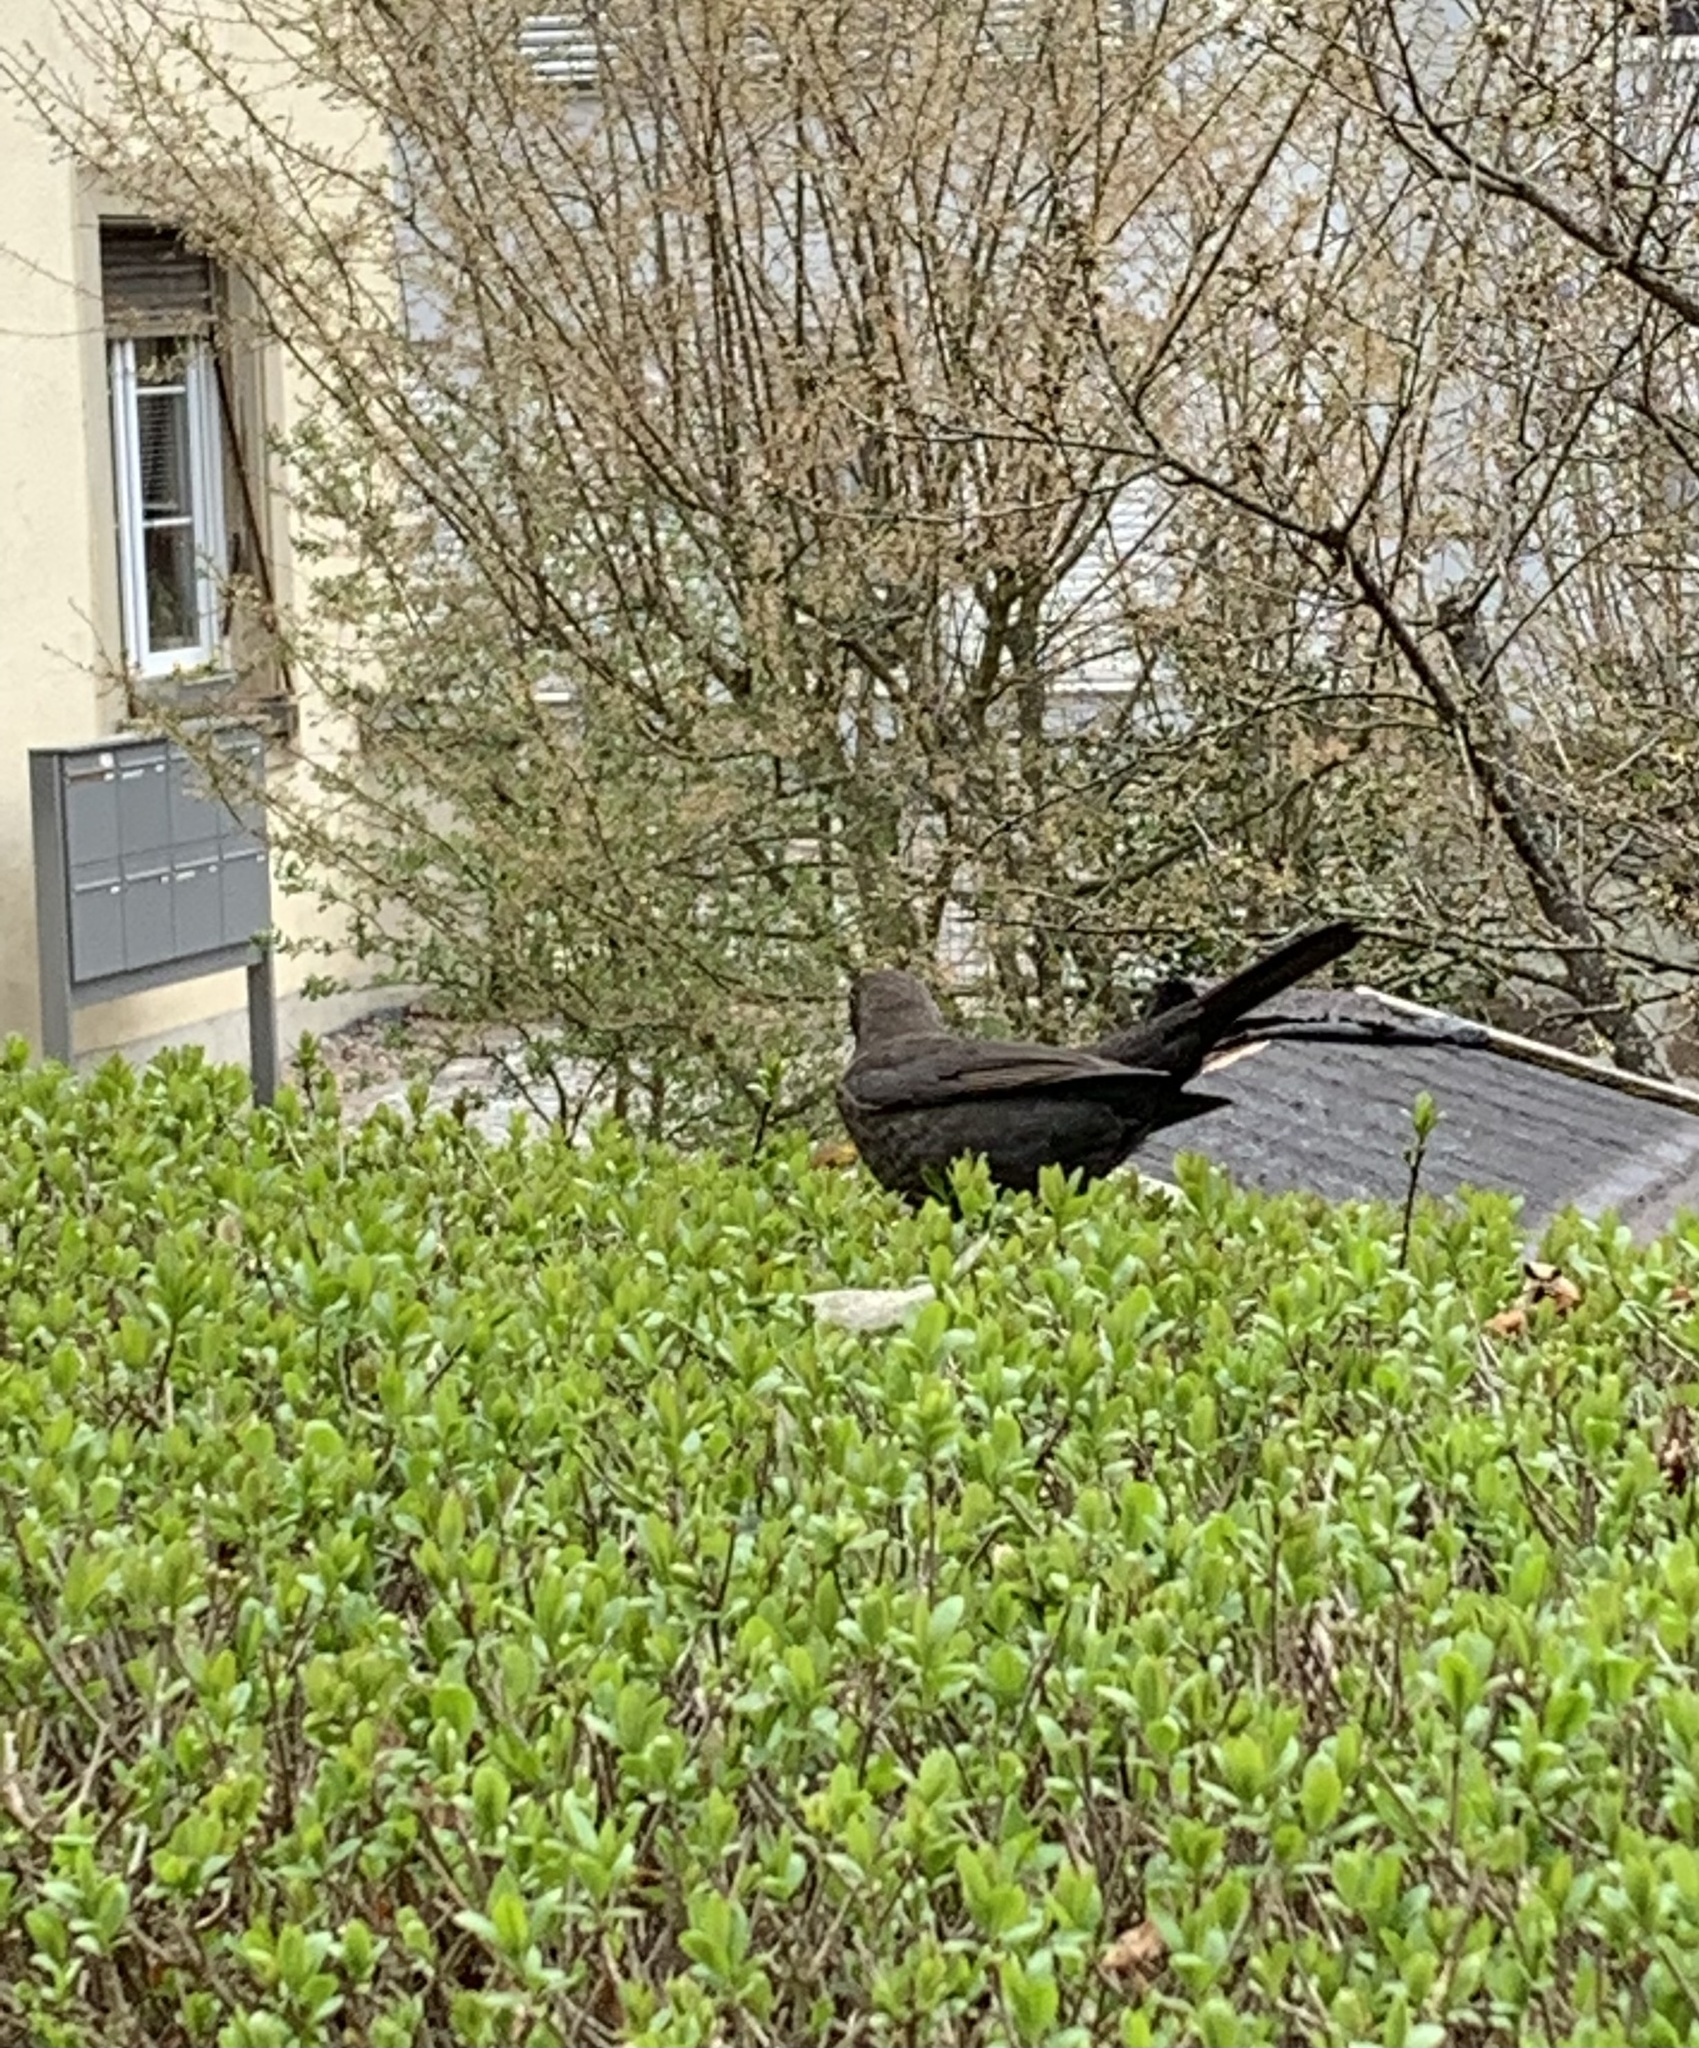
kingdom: Animalia
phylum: Chordata
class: Aves
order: Passeriformes
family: Turdidae
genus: Turdus
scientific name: Turdus merula
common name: Common blackbird
